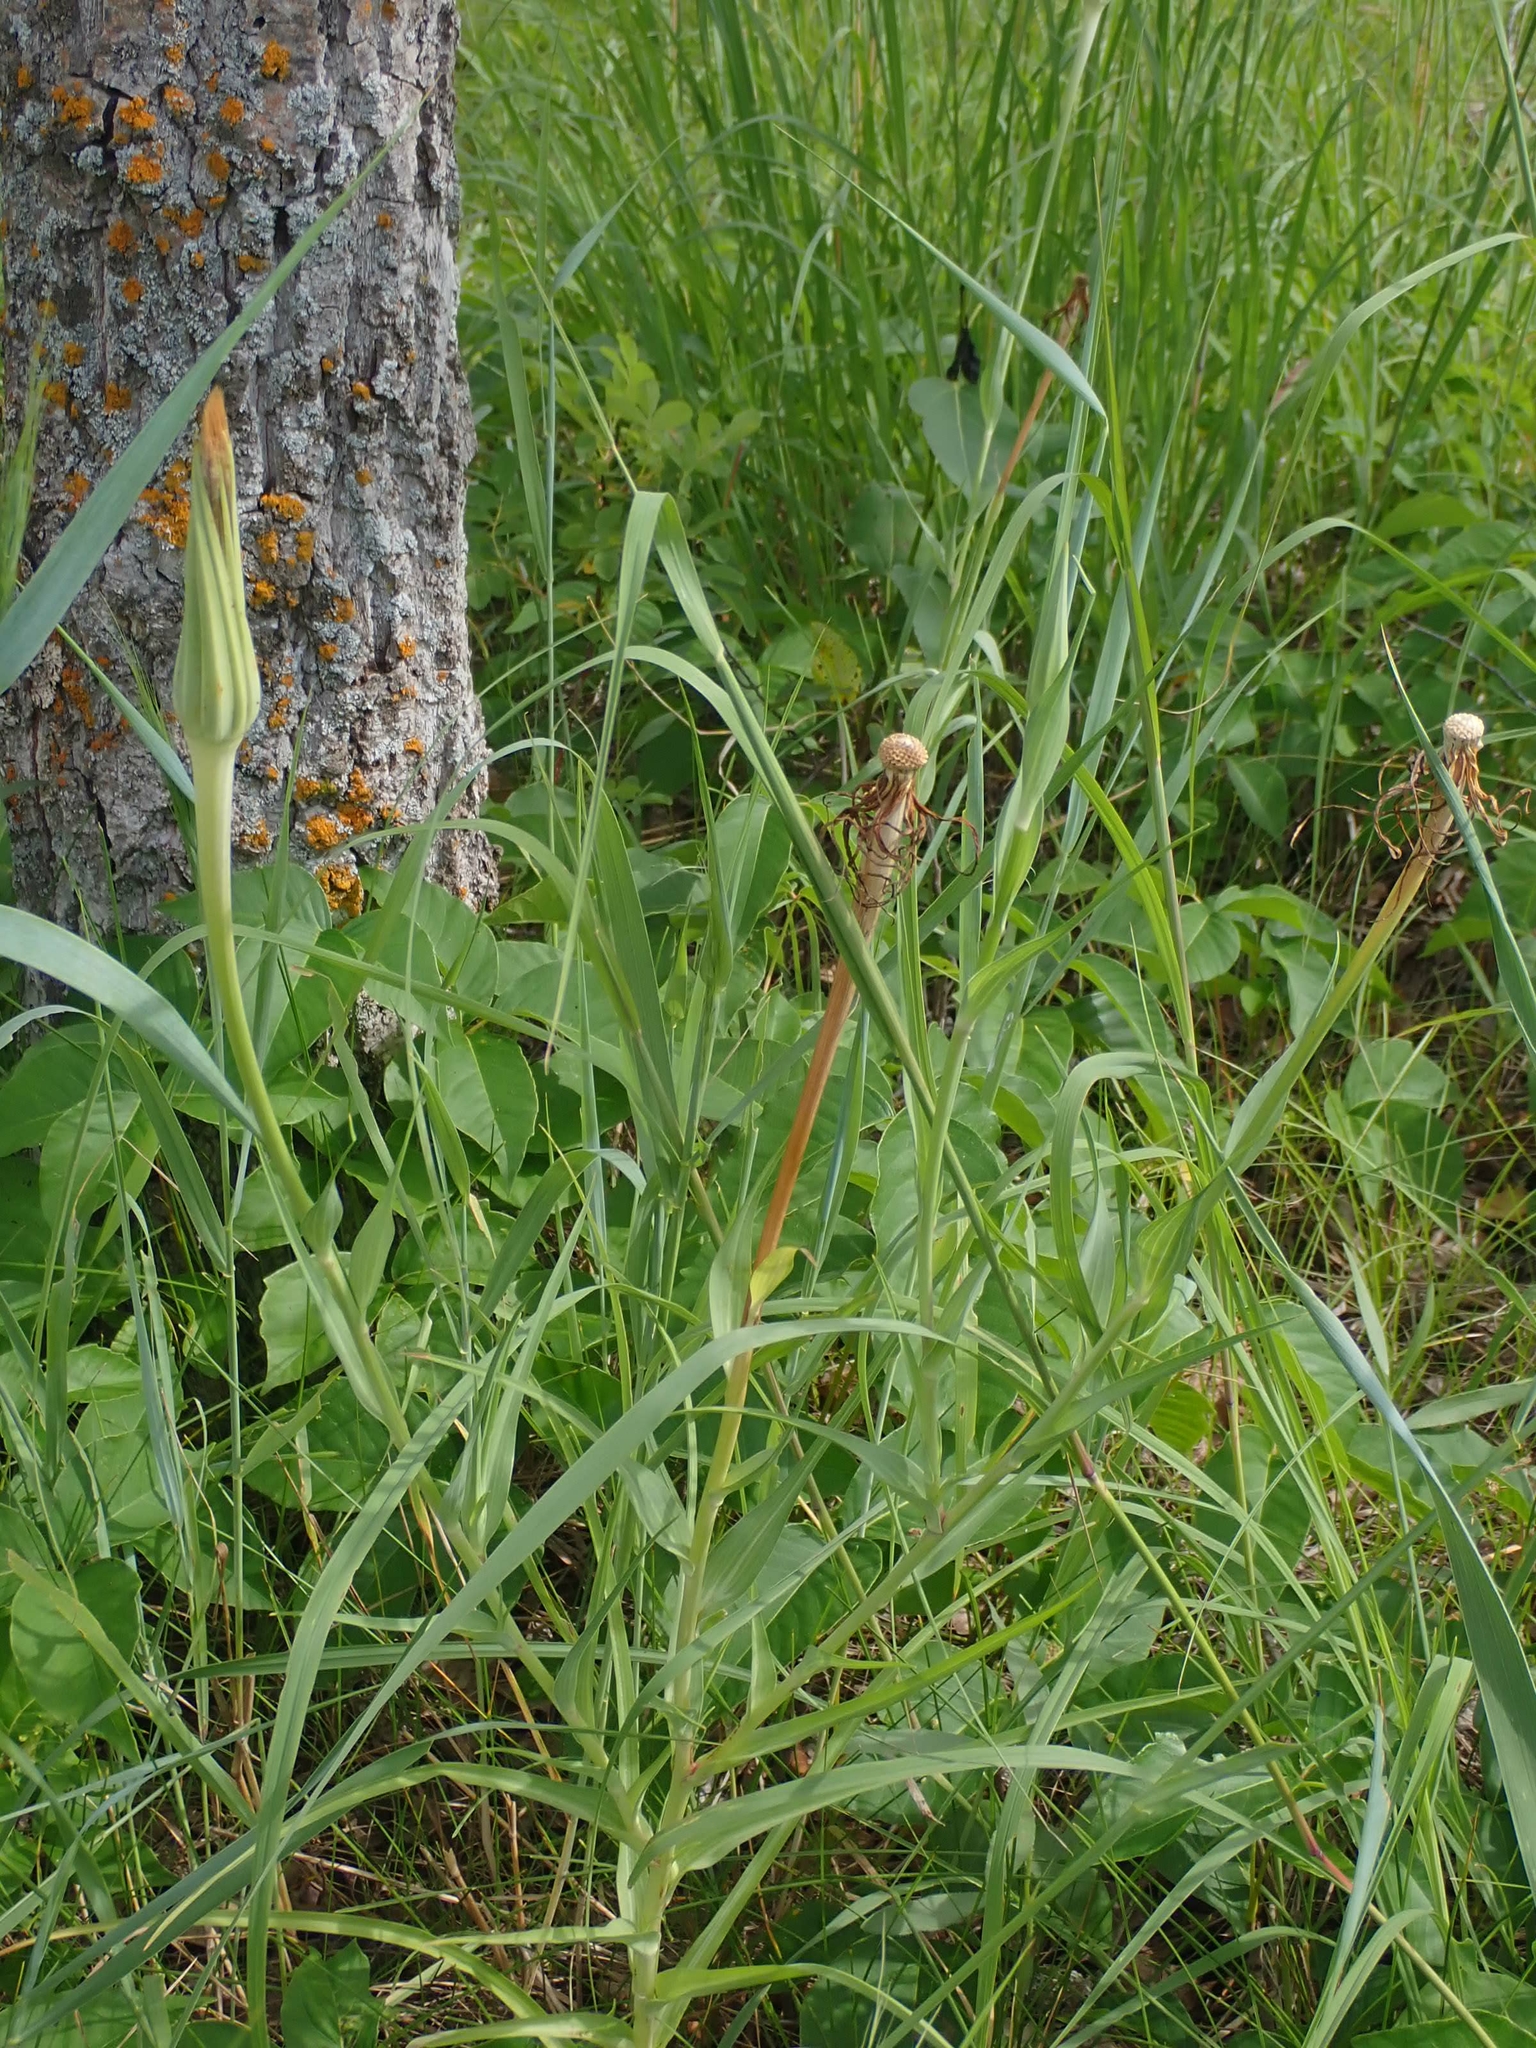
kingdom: Plantae
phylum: Tracheophyta
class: Magnoliopsida
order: Asterales
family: Asteraceae
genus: Tragopogon
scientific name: Tragopogon dubius
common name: Yellow salsify
